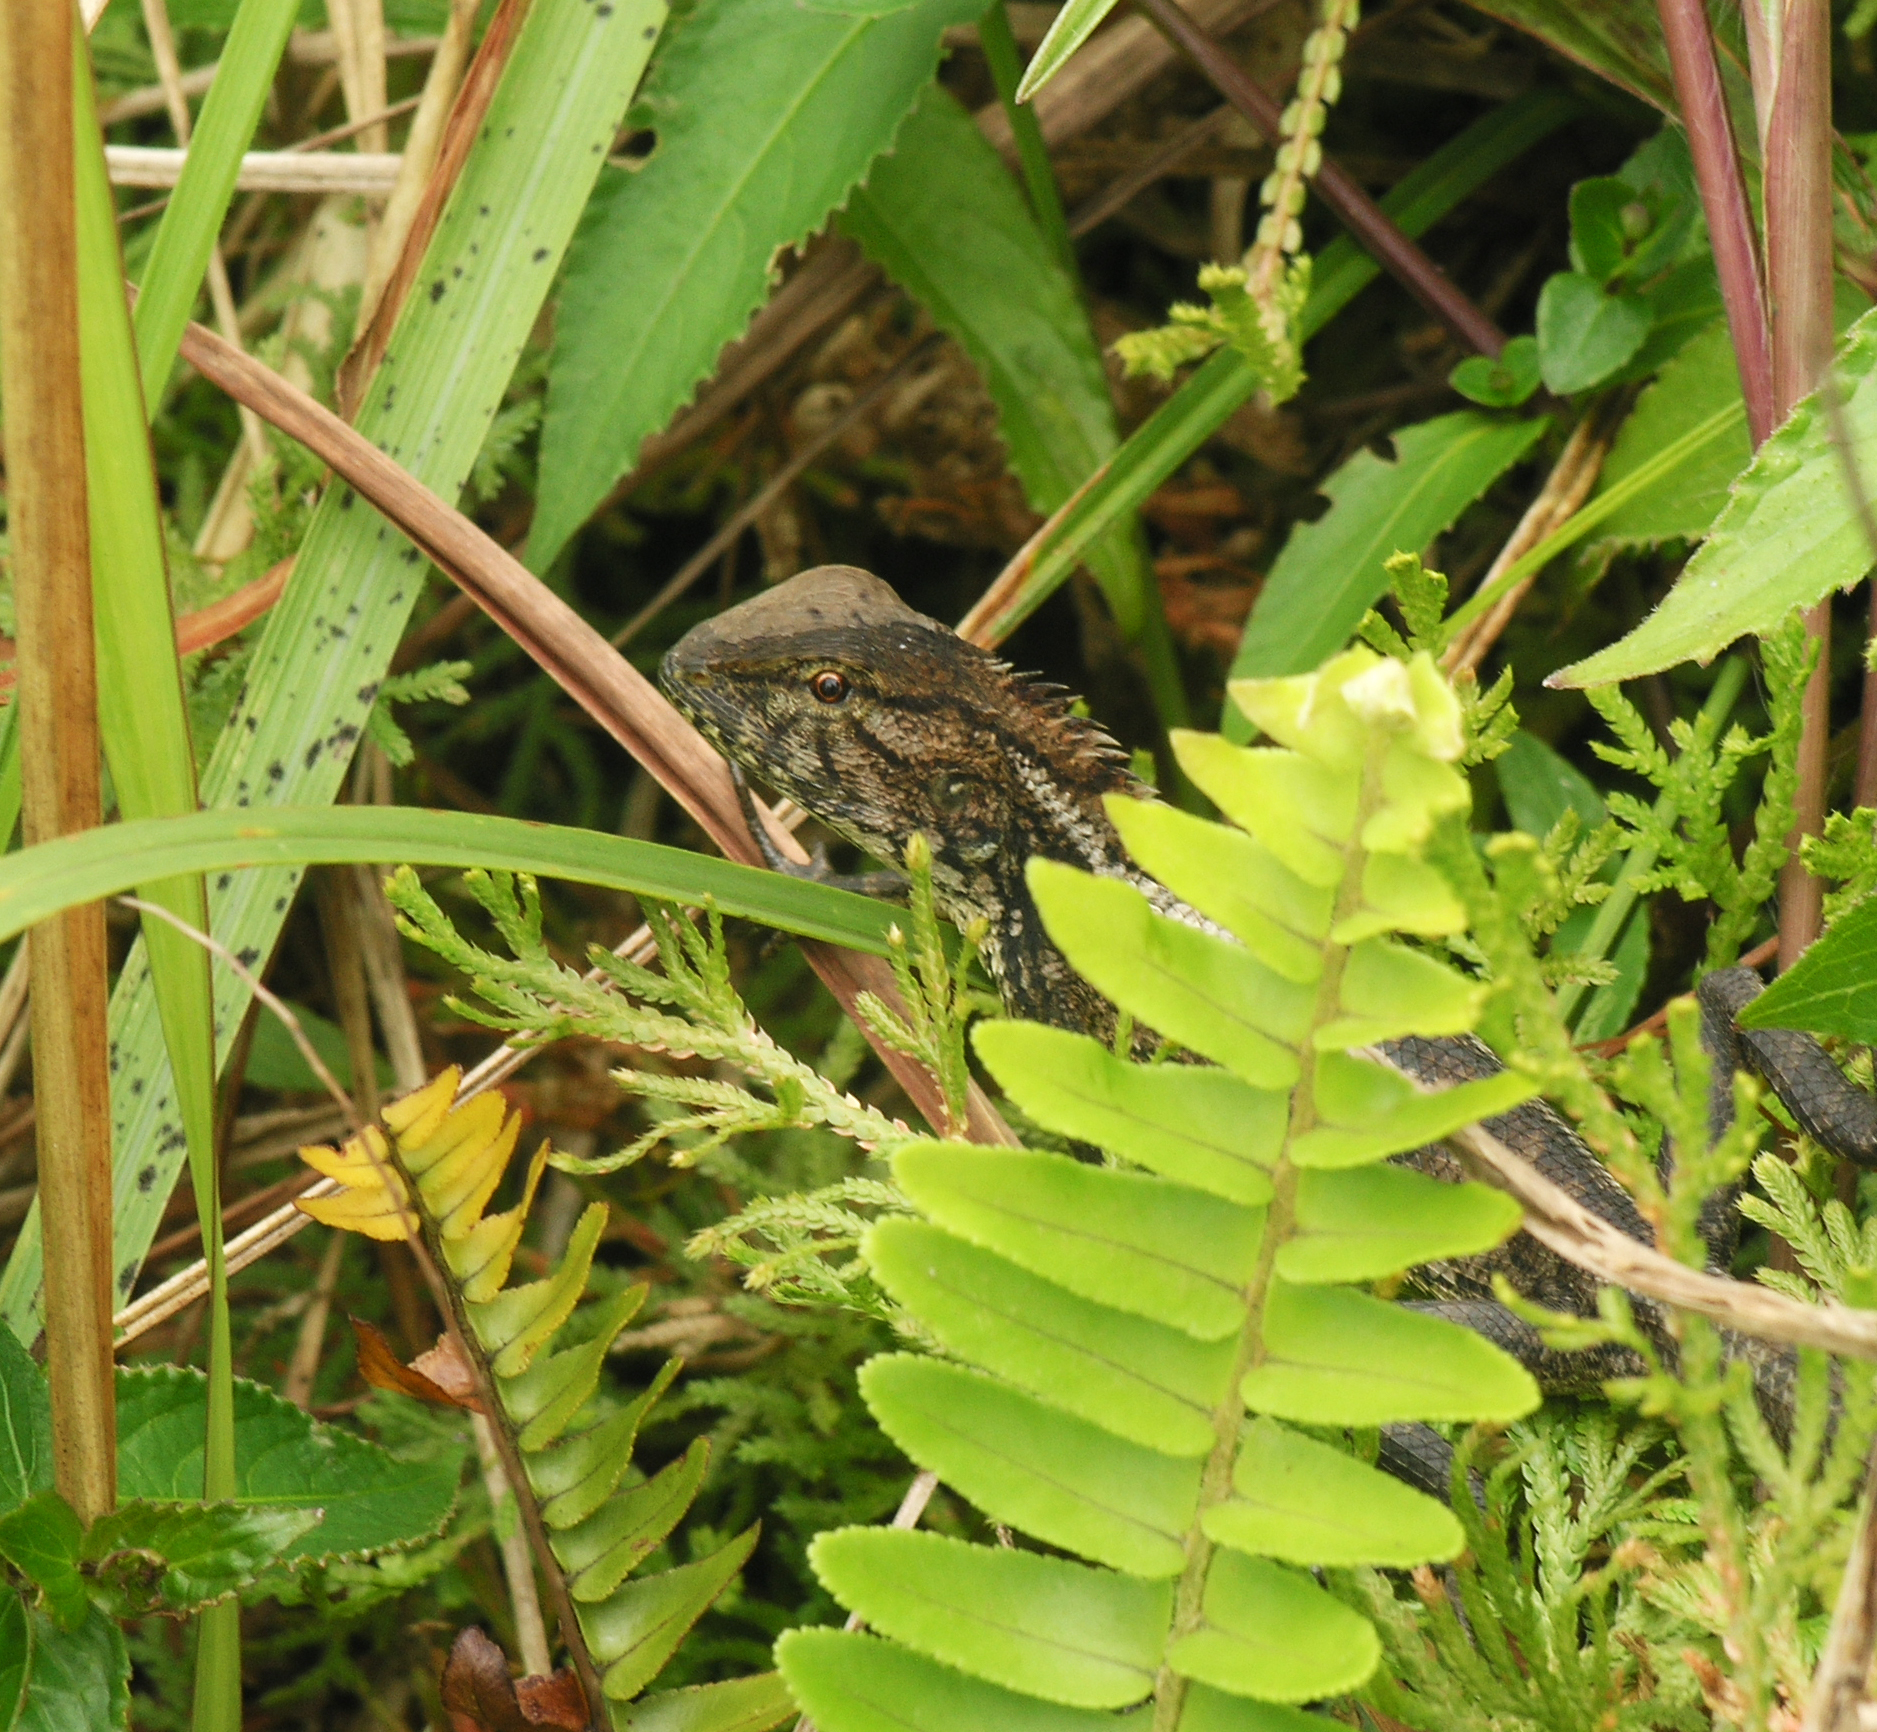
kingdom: Animalia
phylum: Chordata
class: Squamata
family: Agamidae
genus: Calotes
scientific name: Calotes versicolor
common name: Oriental garden lizard
